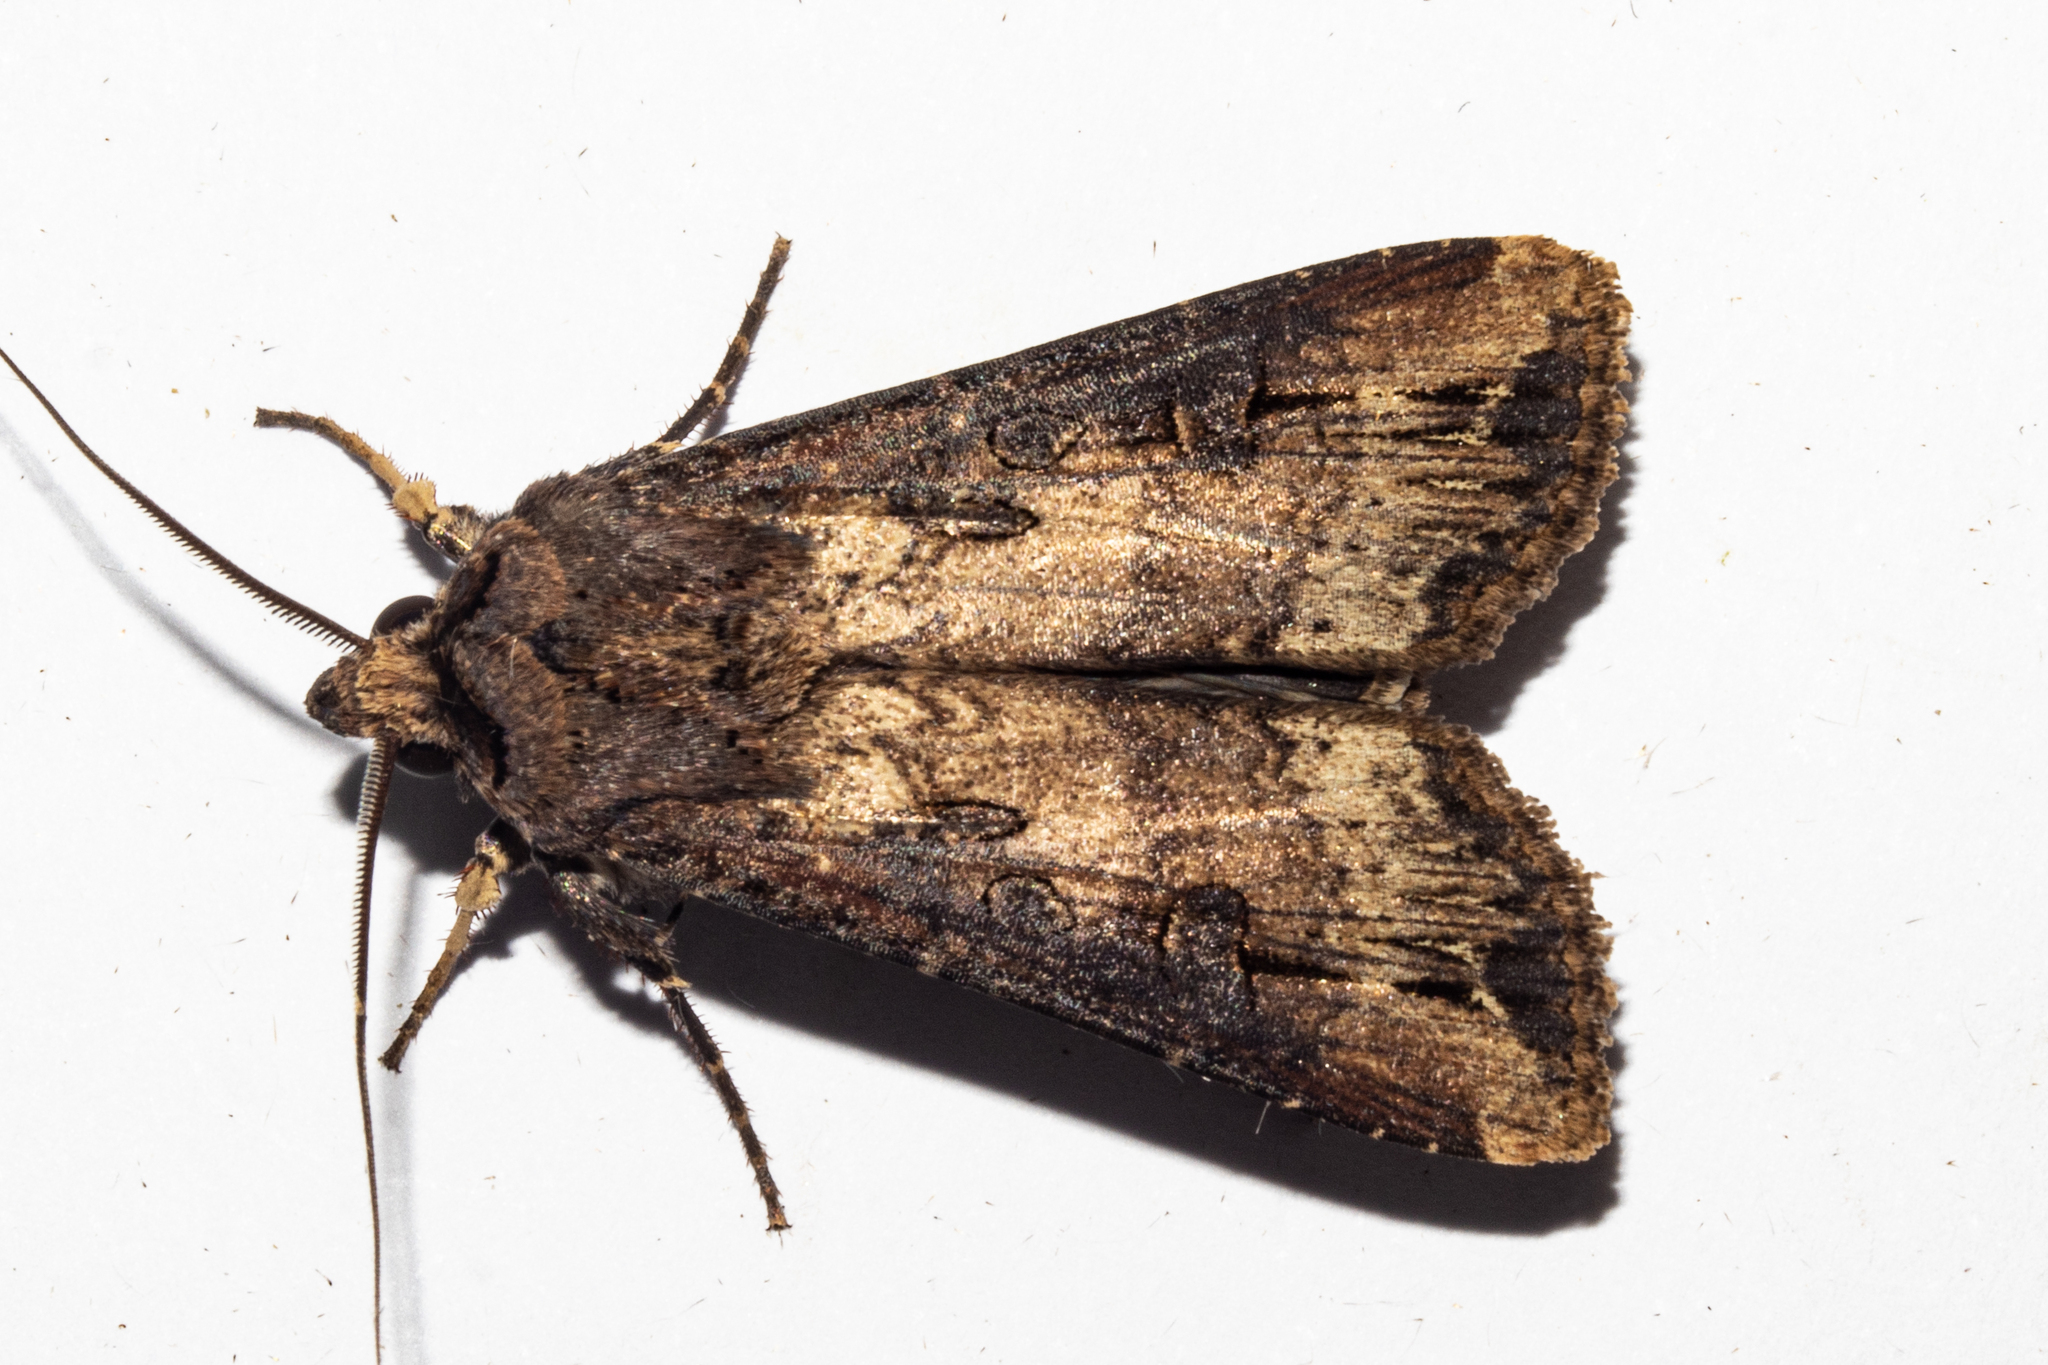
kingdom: Animalia
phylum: Arthropoda
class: Insecta
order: Lepidoptera
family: Noctuidae
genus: Agrotis
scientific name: Agrotis ipsilon
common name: Dark sword-grass
